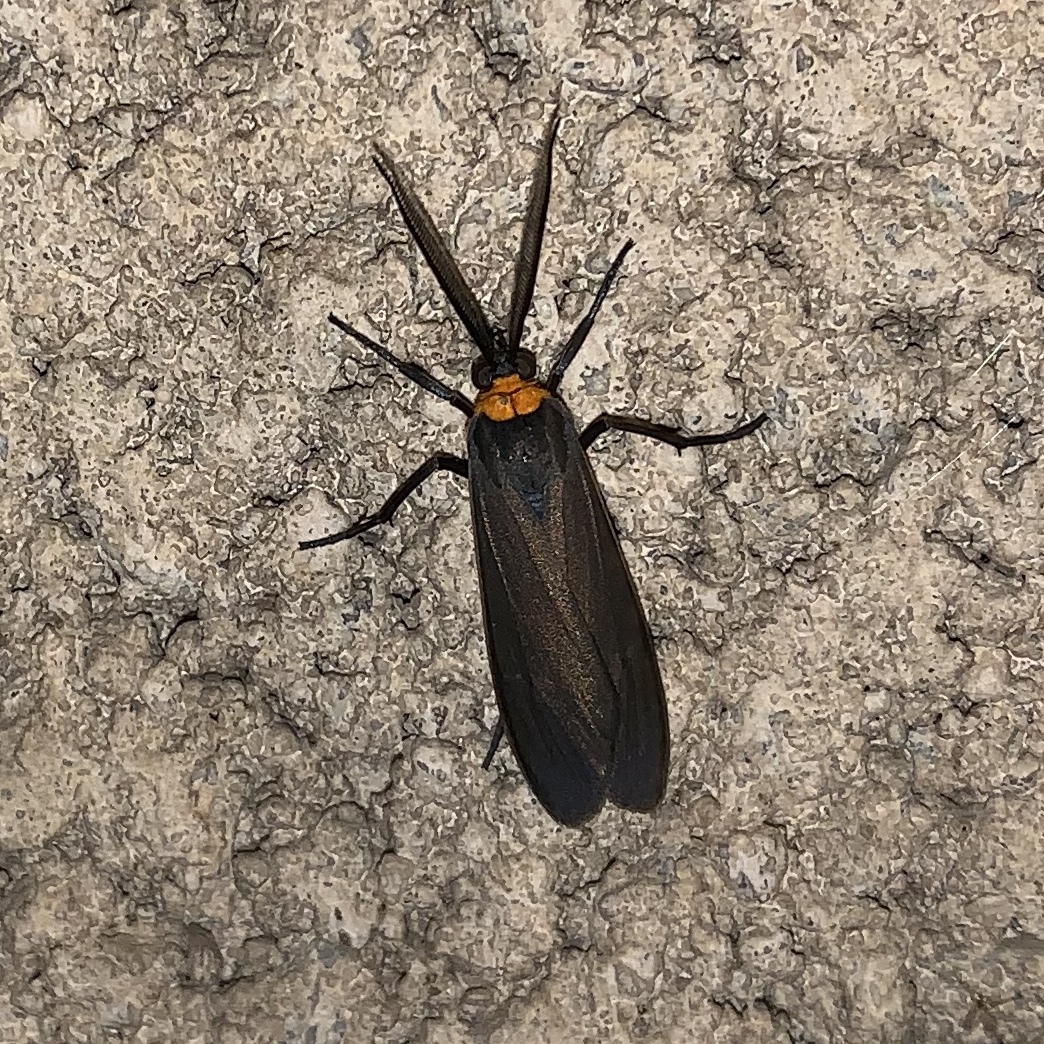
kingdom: Animalia
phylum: Arthropoda
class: Insecta
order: Lepidoptera
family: Erebidae
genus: Cisseps
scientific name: Cisseps fulvicollis
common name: Yellow-collared scape moth
